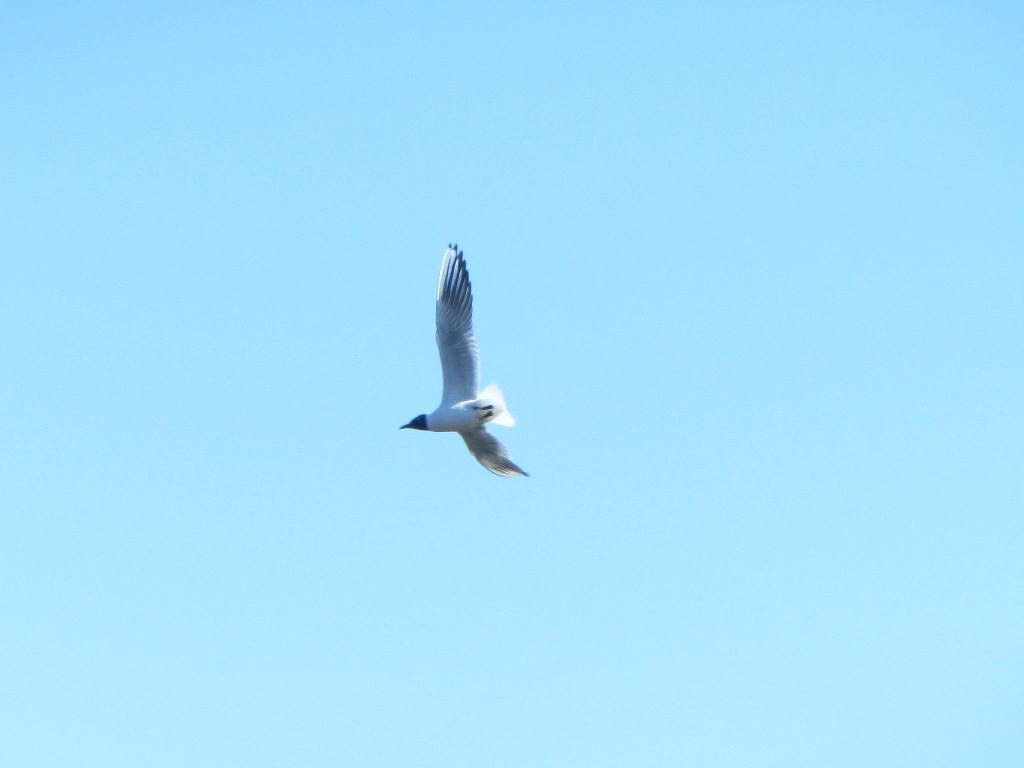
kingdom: Animalia
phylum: Chordata
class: Aves
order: Charadriiformes
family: Laridae
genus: Chroicocephalus
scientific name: Chroicocephalus ridibundus
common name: Black-headed gull
